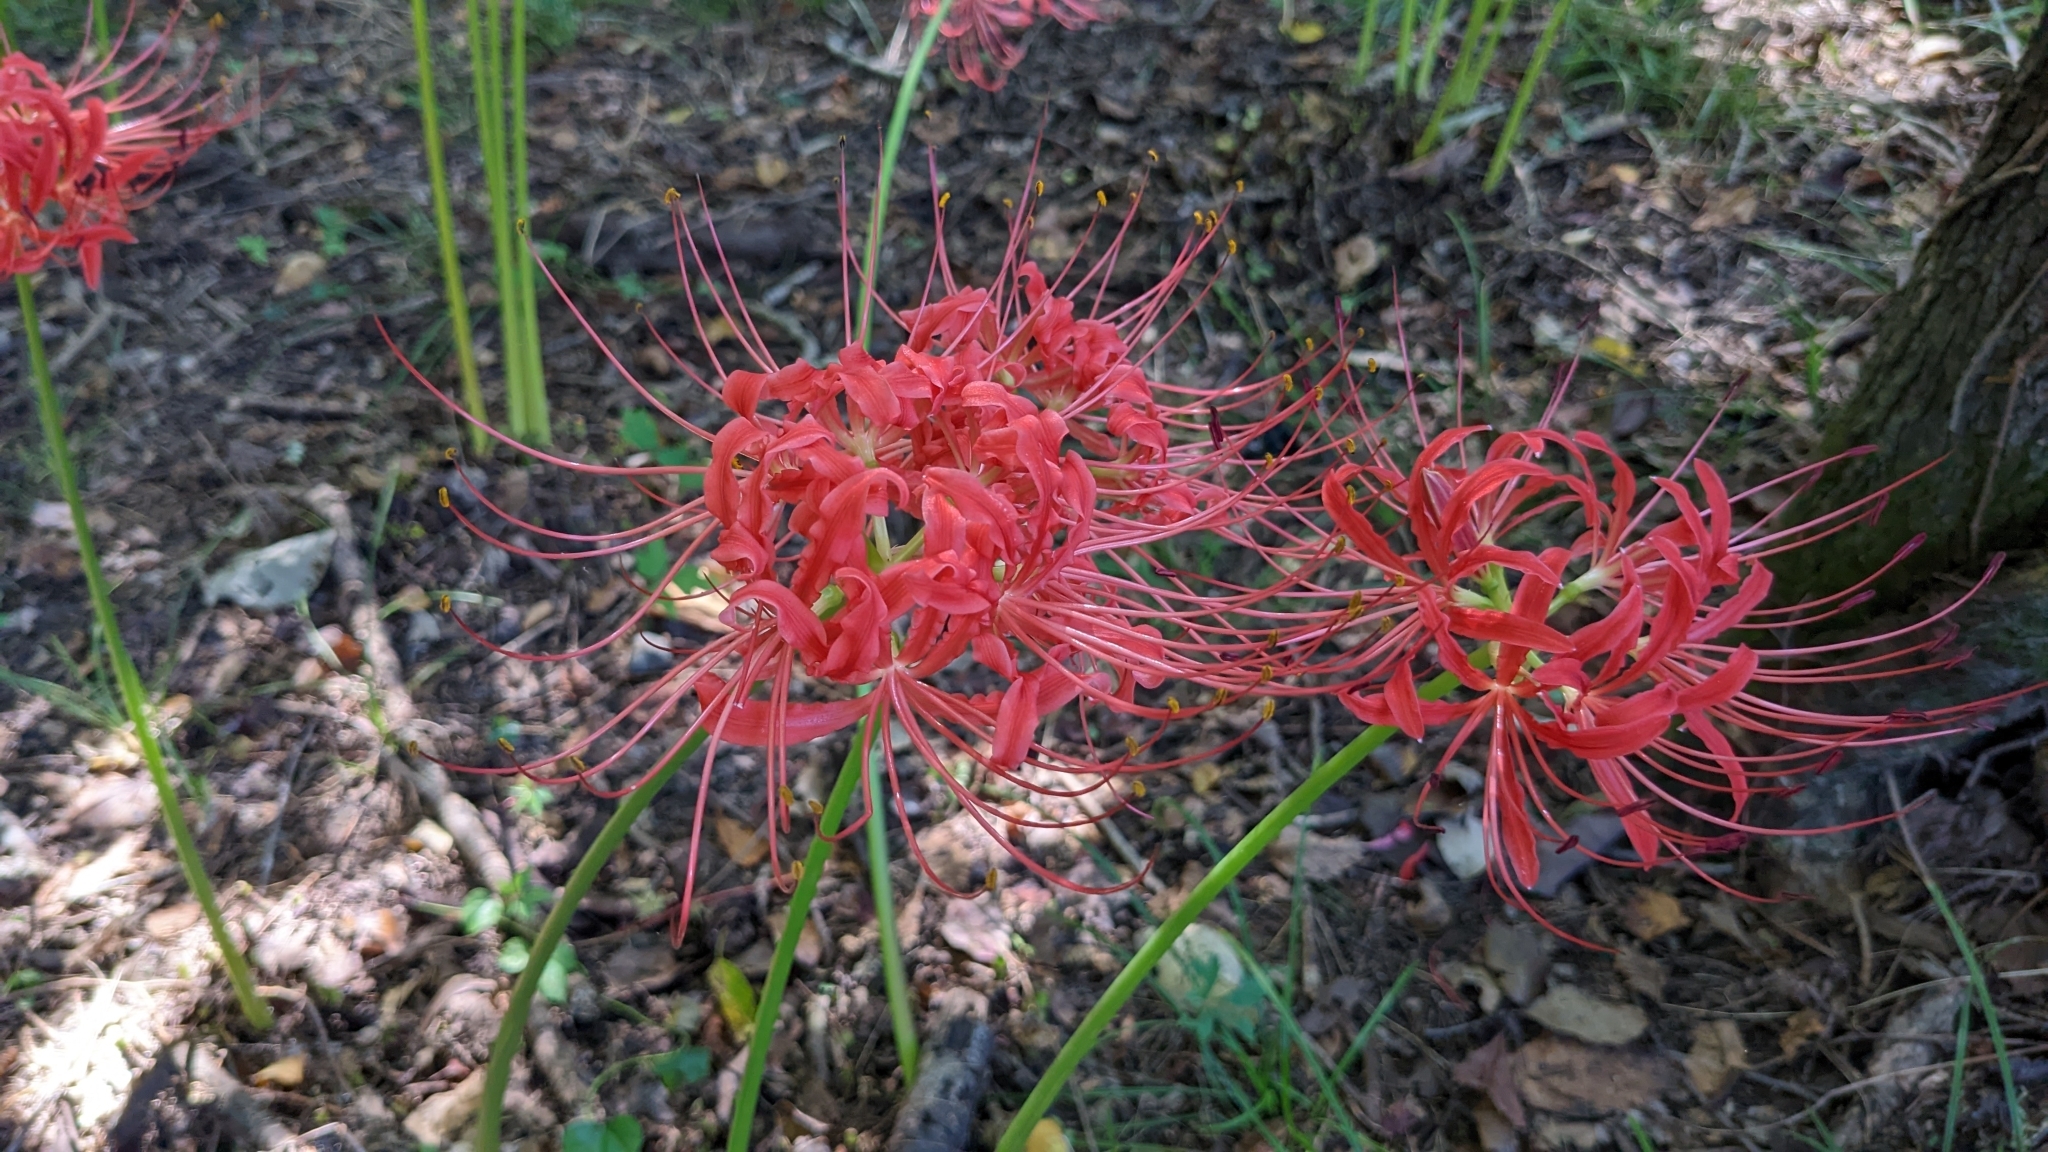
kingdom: Plantae
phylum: Tracheophyta
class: Liliopsida
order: Asparagales
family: Amaryllidaceae
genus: Lycoris
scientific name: Lycoris radiata
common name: Red spider lily
